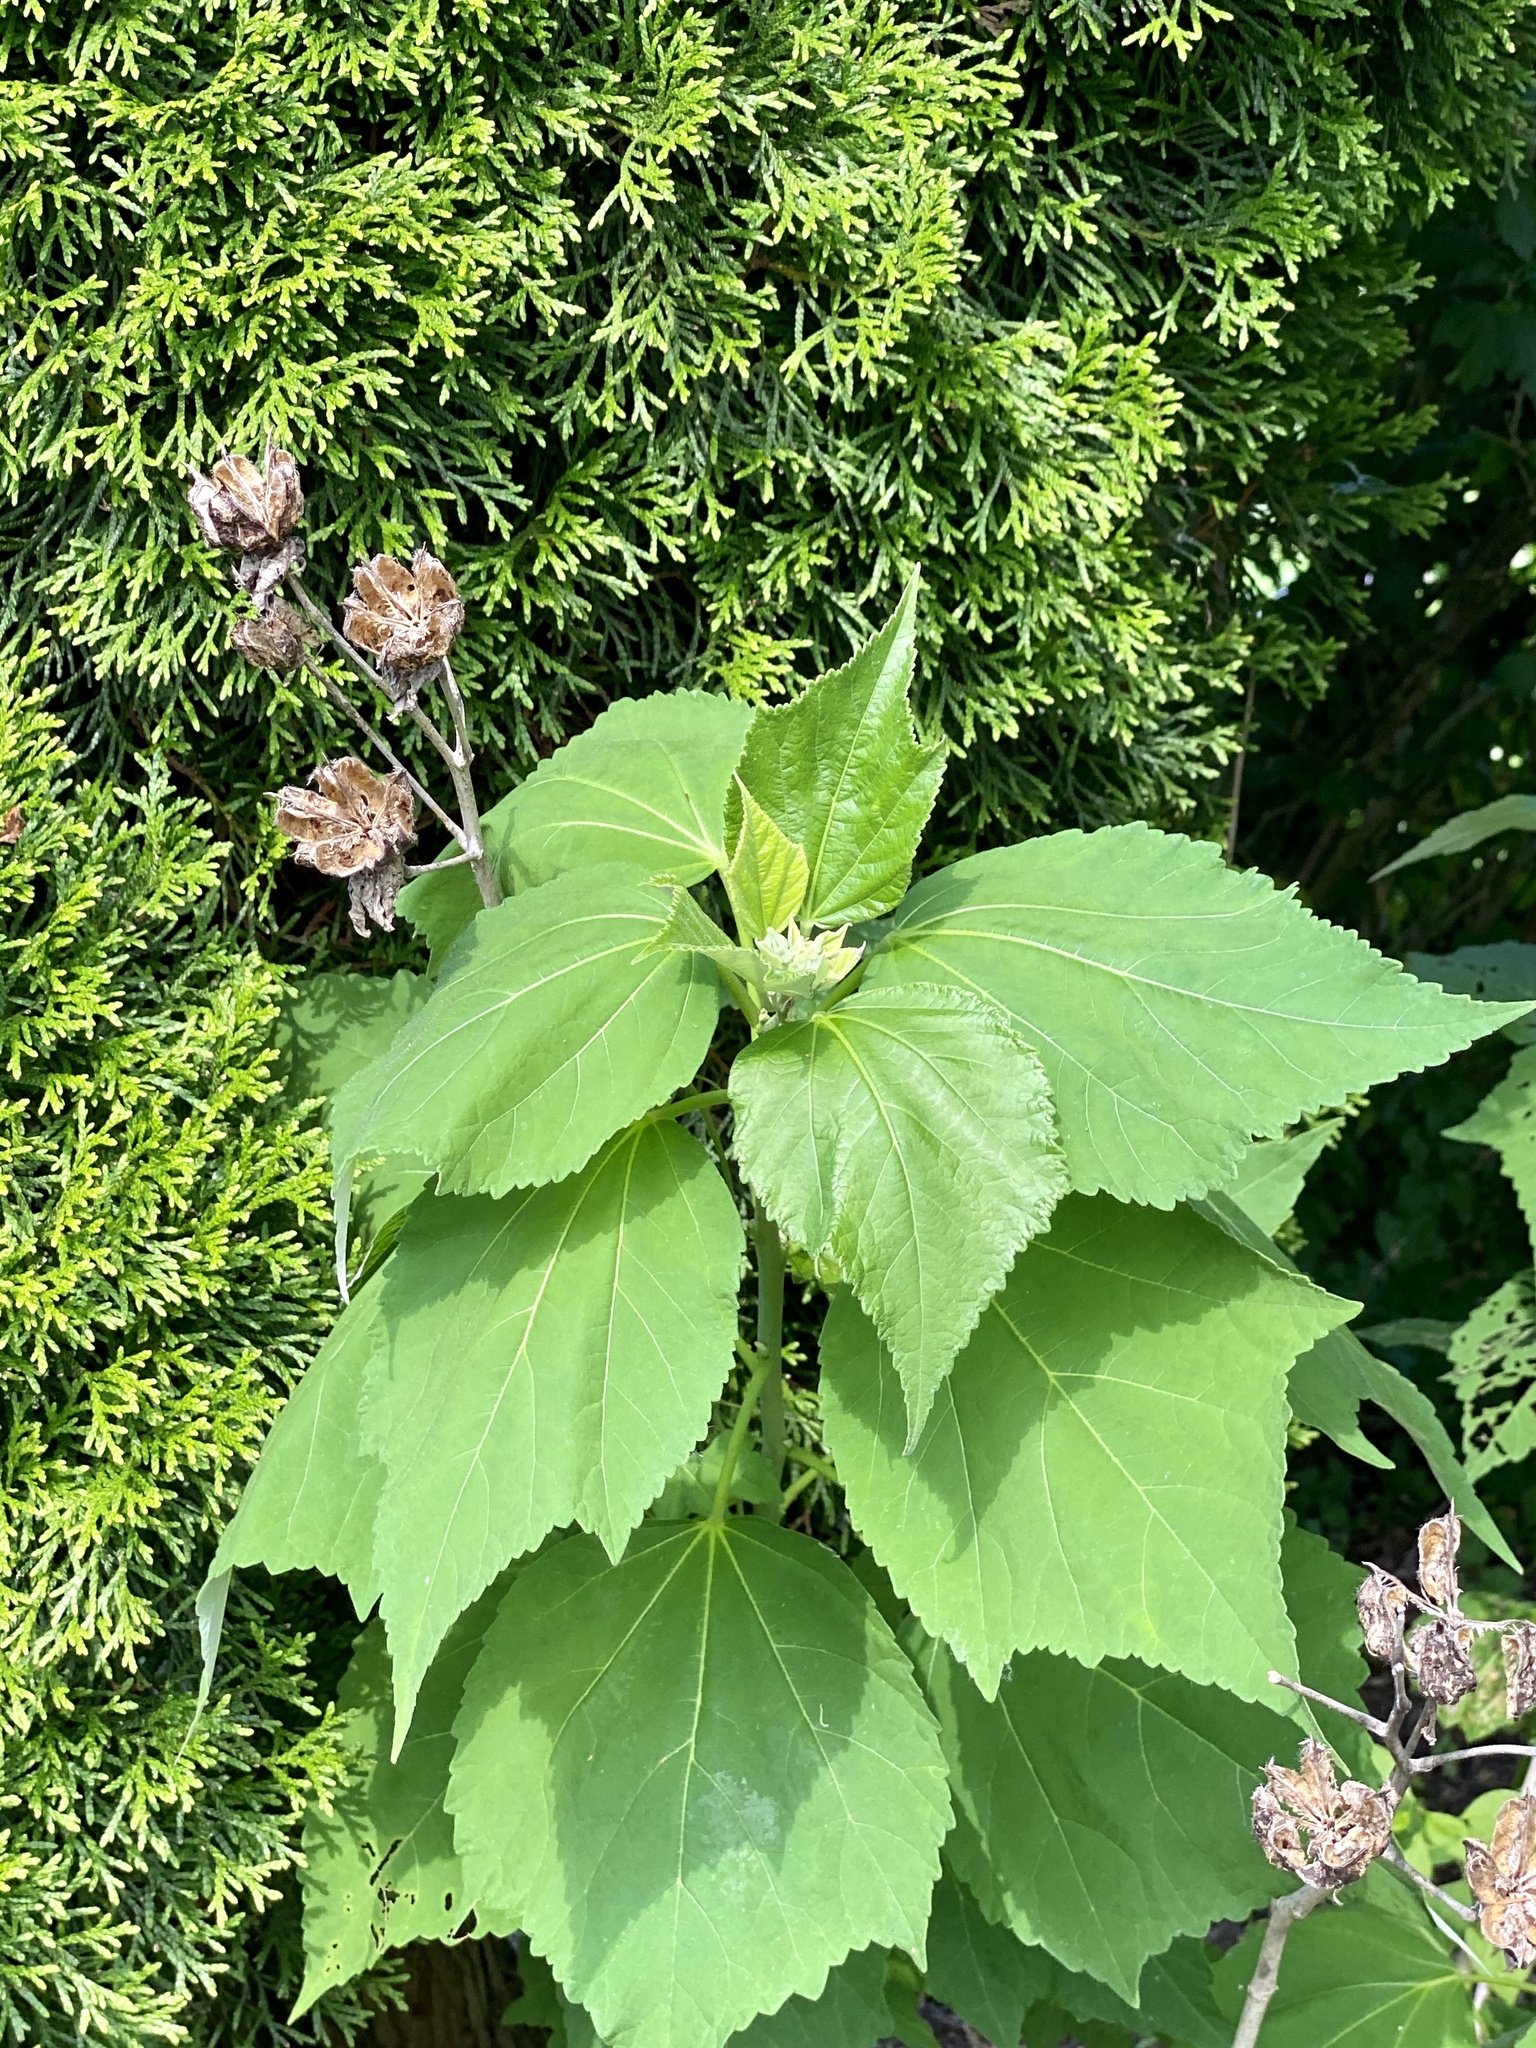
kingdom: Plantae
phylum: Tracheophyta
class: Magnoliopsida
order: Malvales
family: Malvaceae
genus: Hibiscus
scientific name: Hibiscus moscheutos
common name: Common rose-mallow
